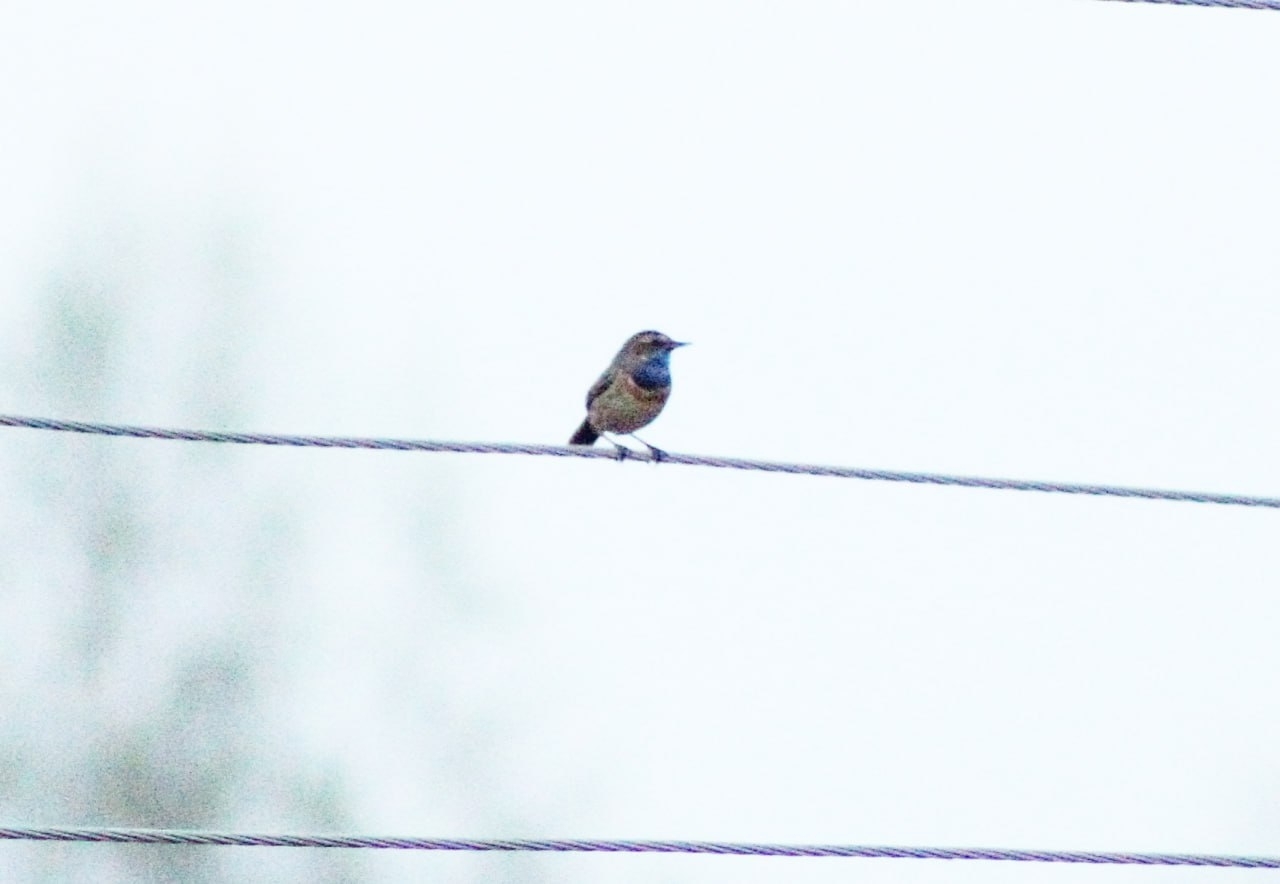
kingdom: Animalia
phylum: Chordata
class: Aves
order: Passeriformes
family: Muscicapidae
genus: Luscinia
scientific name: Luscinia svecica
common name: Bluethroat
